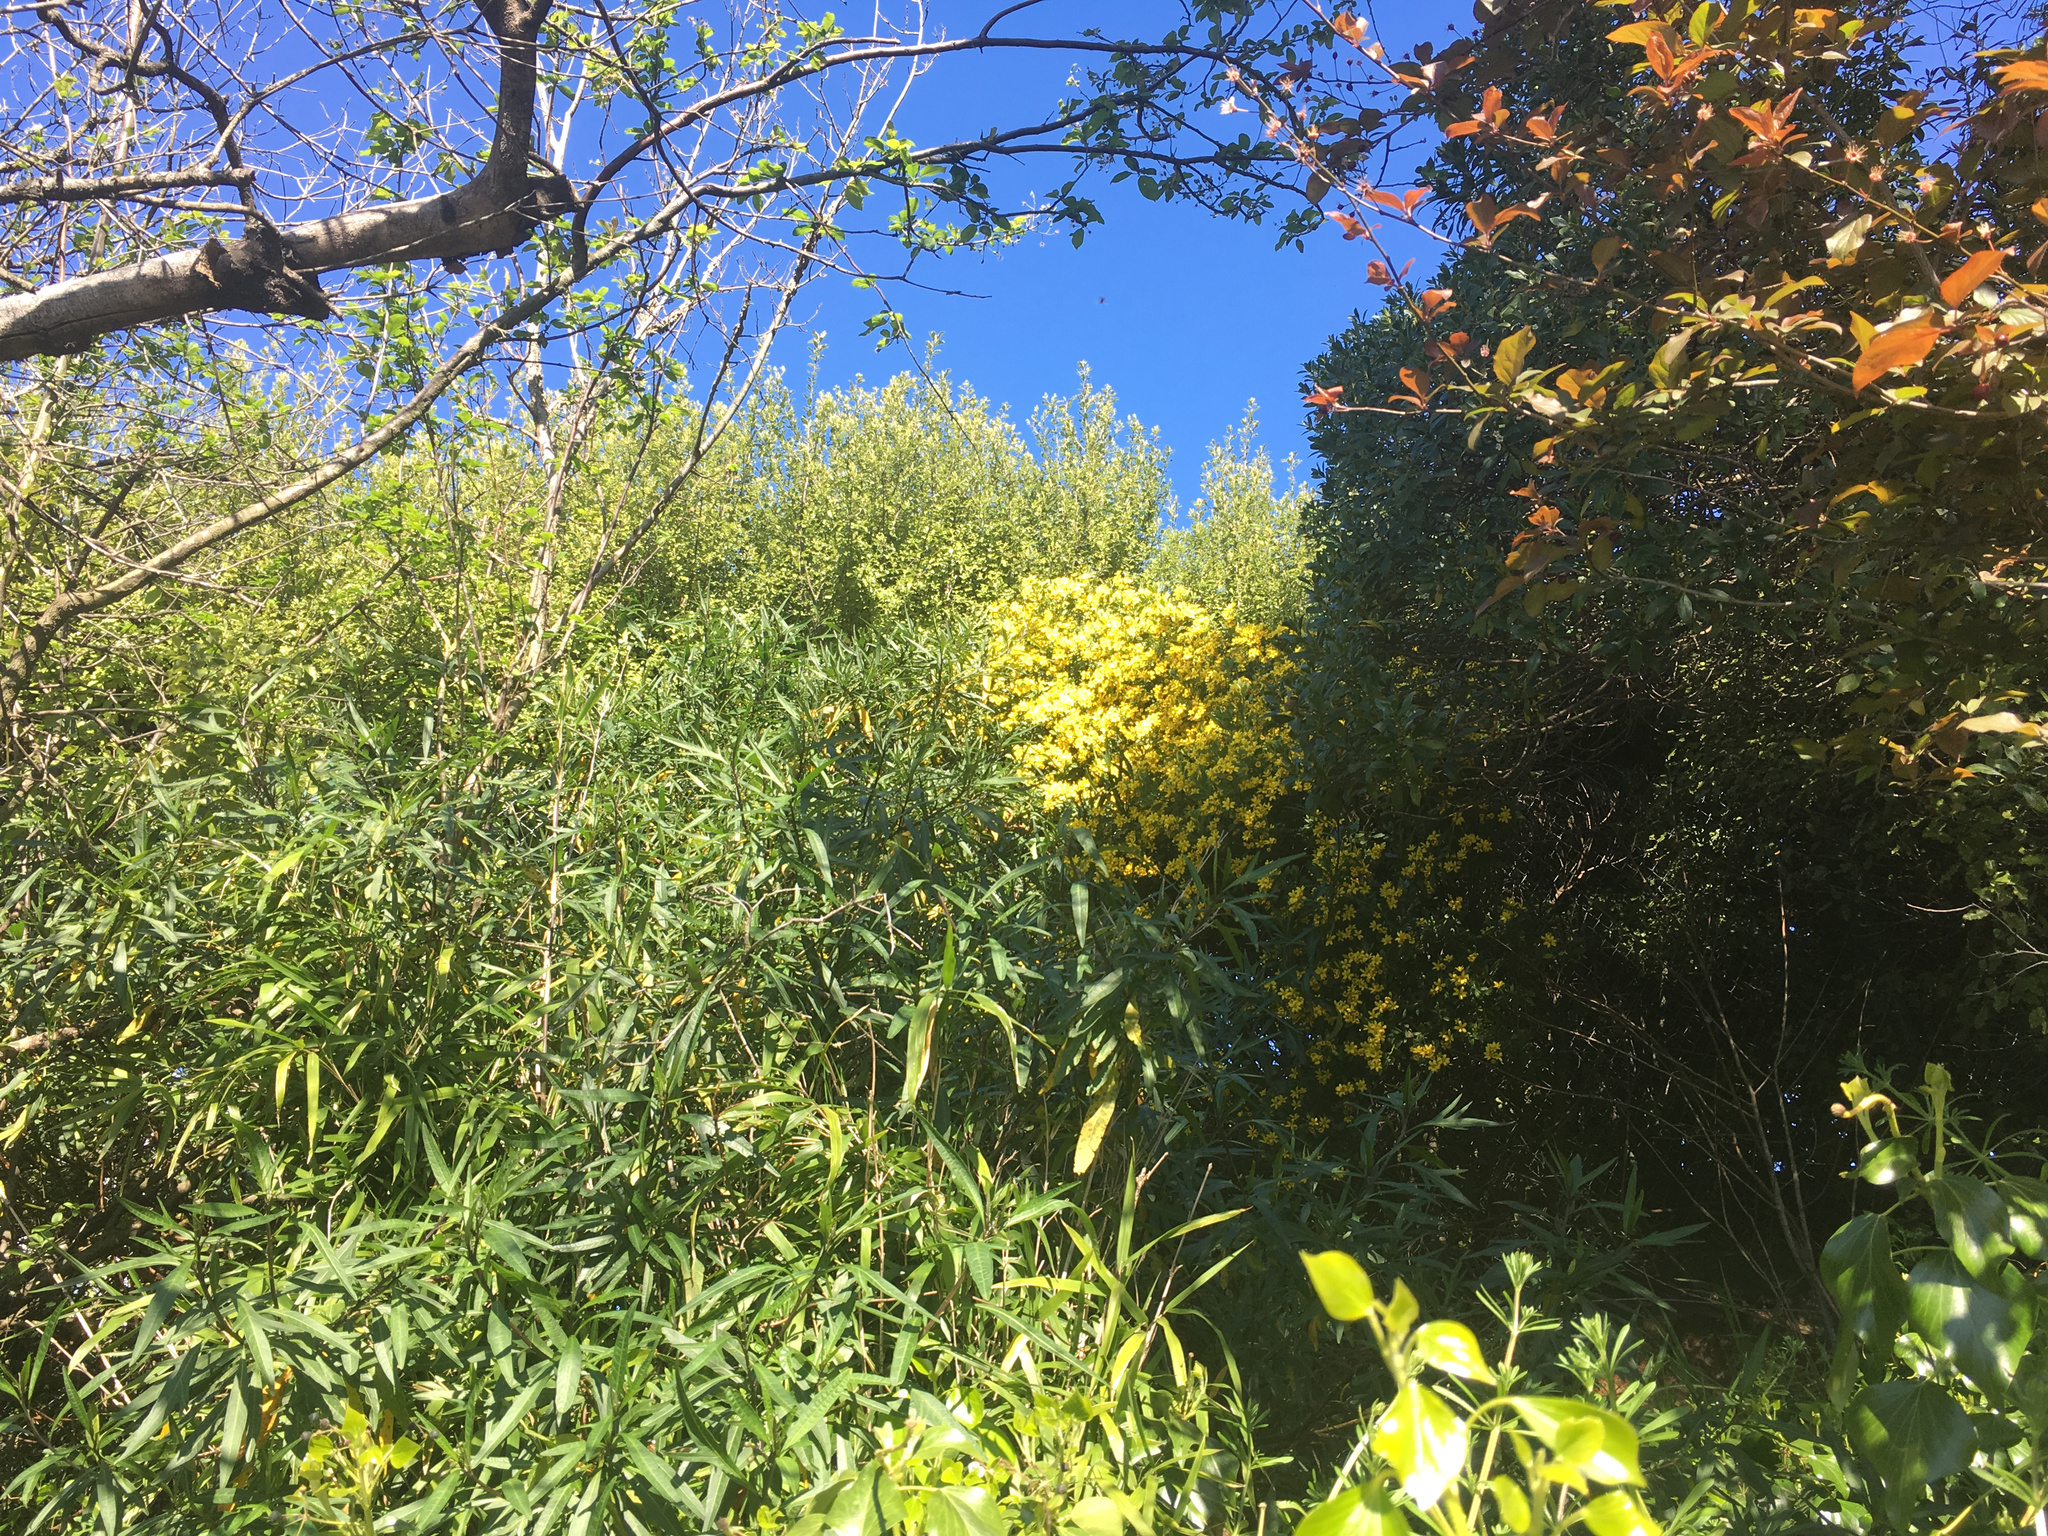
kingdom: Plantae
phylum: Tracheophyta
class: Magnoliopsida
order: Asterales
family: Asteraceae
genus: Osteospermum
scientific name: Osteospermum moniliferum
